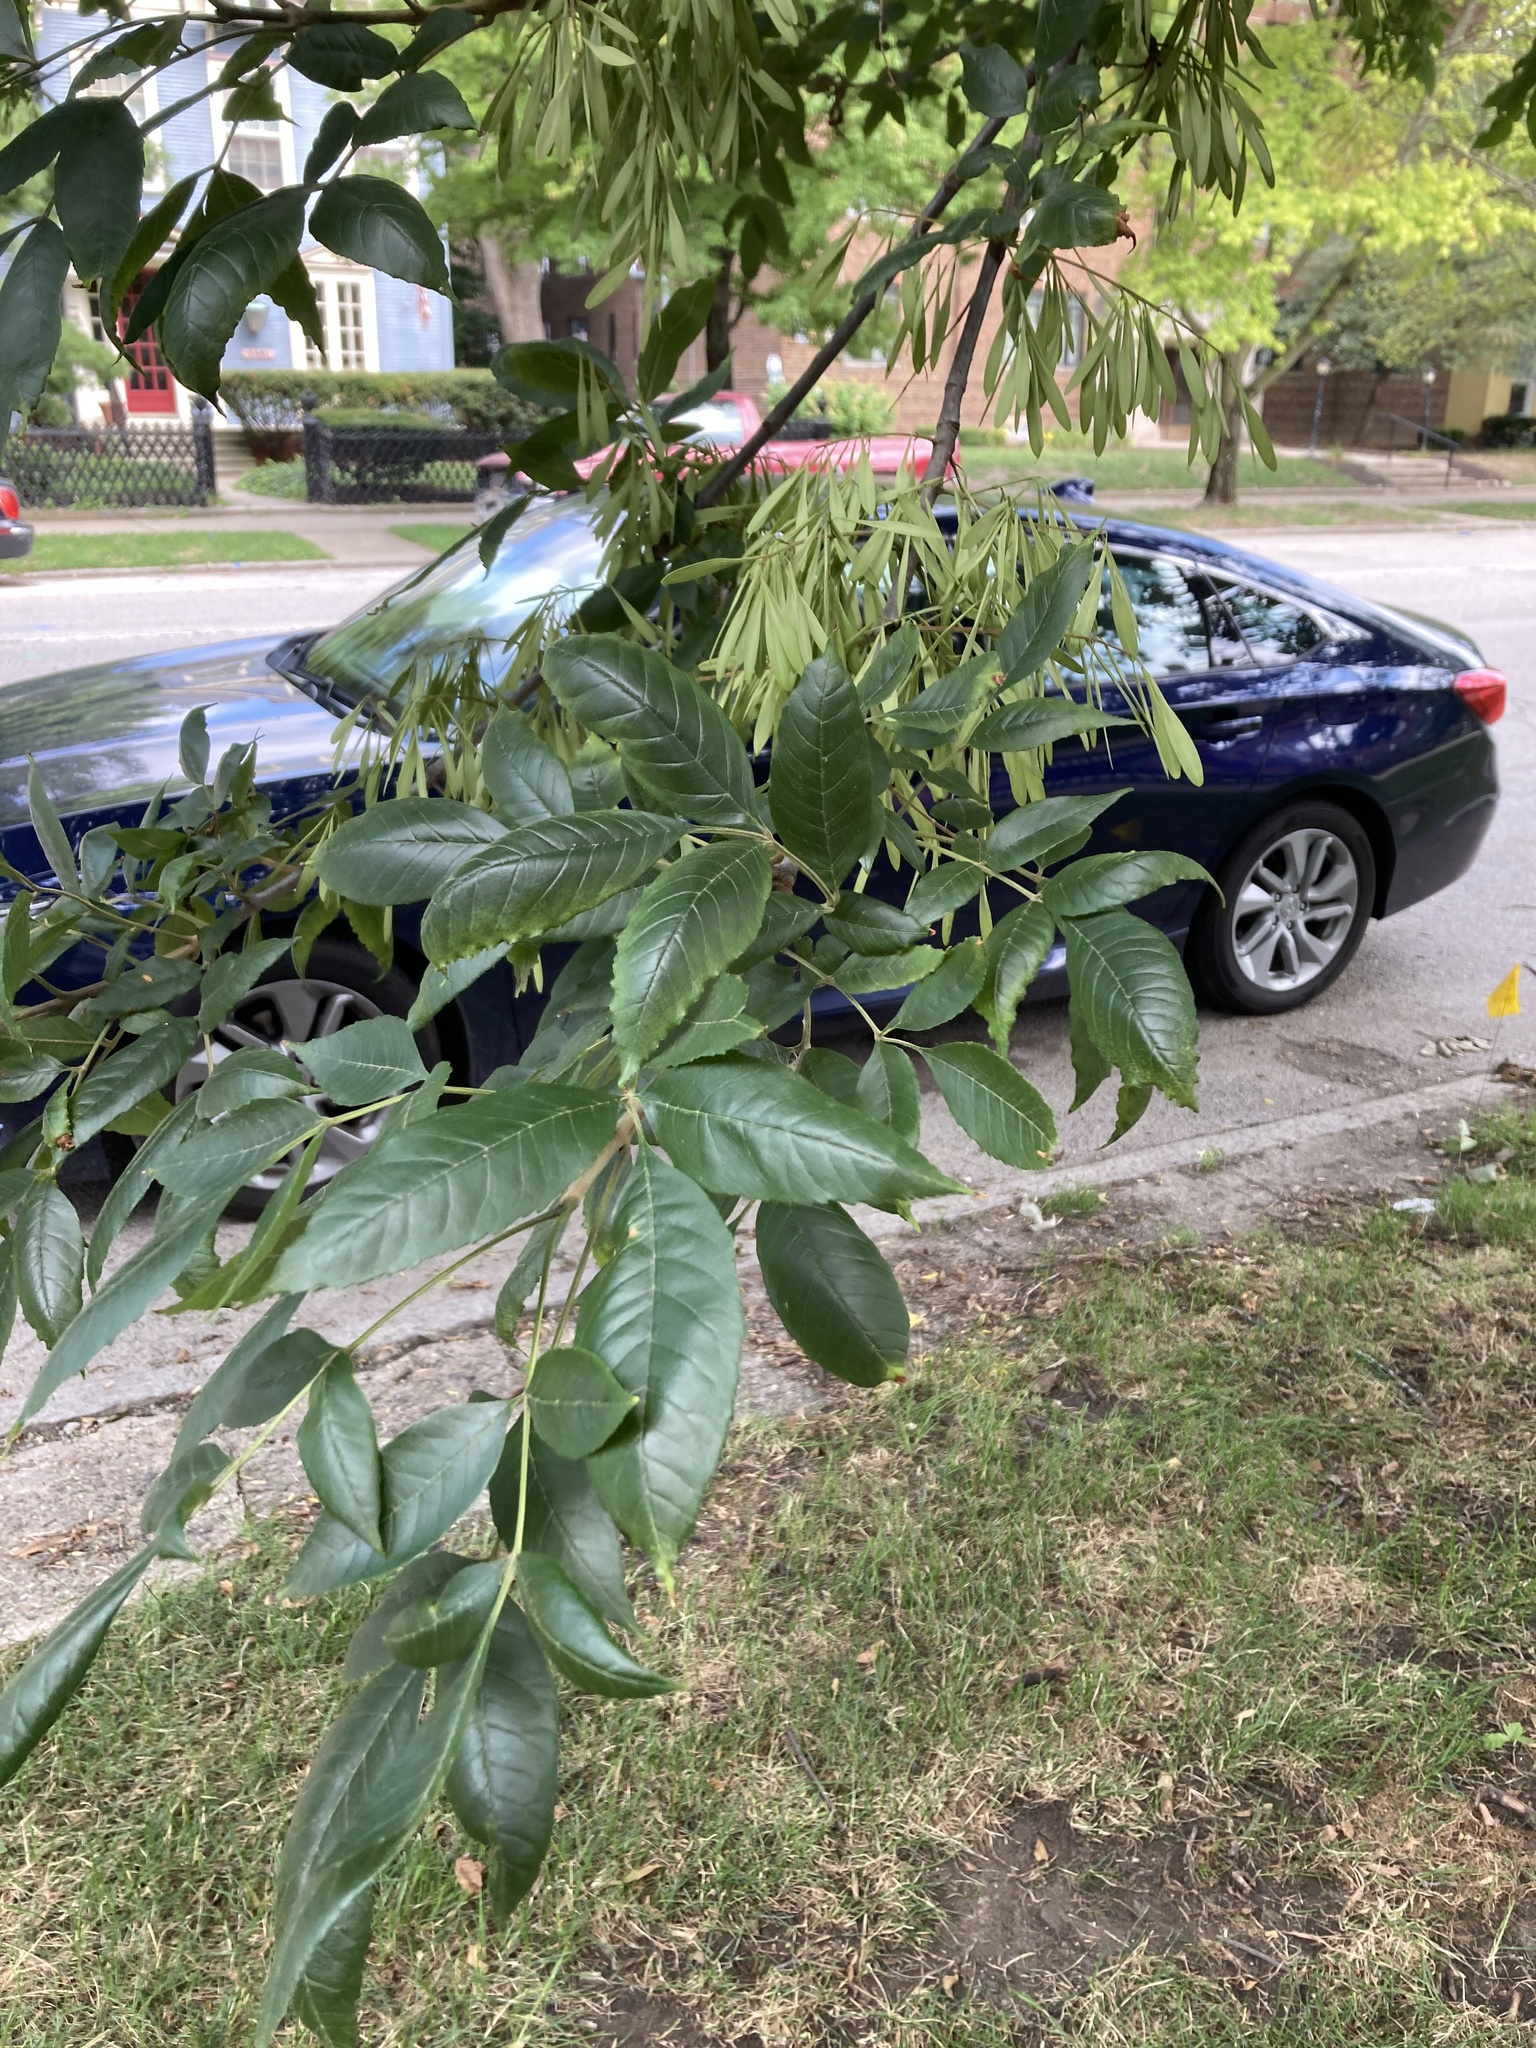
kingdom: Plantae
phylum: Tracheophyta
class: Magnoliopsida
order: Lamiales
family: Oleaceae
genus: Fraxinus
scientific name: Fraxinus pennsylvanica
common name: Green ash
